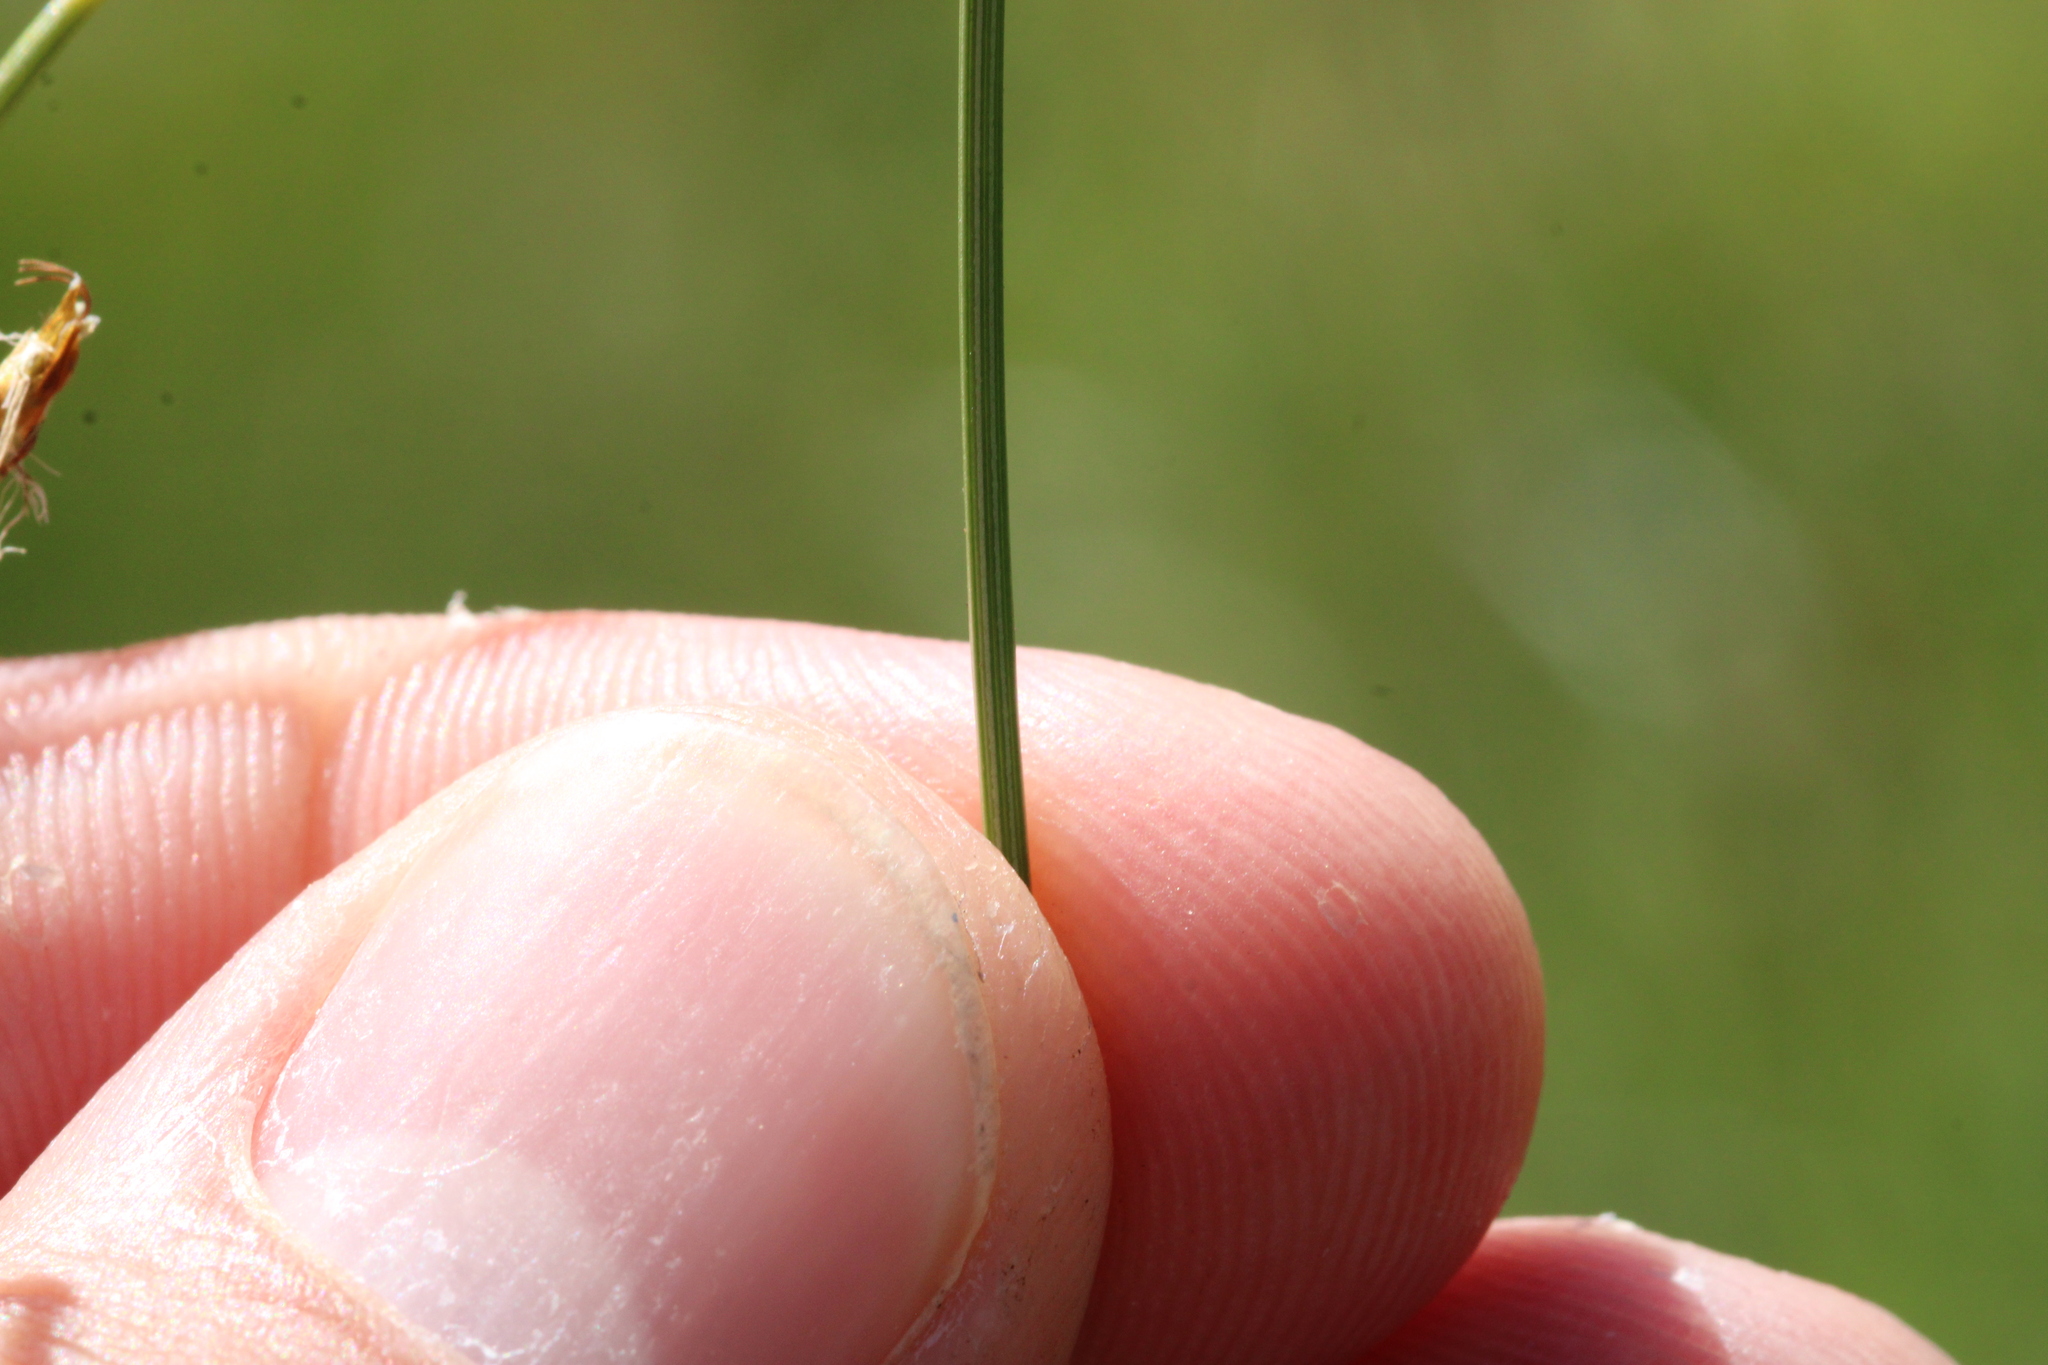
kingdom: Plantae
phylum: Tracheophyta
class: Liliopsida
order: Poales
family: Cyperaceae
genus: Trichophorum
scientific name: Trichophorum cespitosum
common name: Cespitose bulrush
